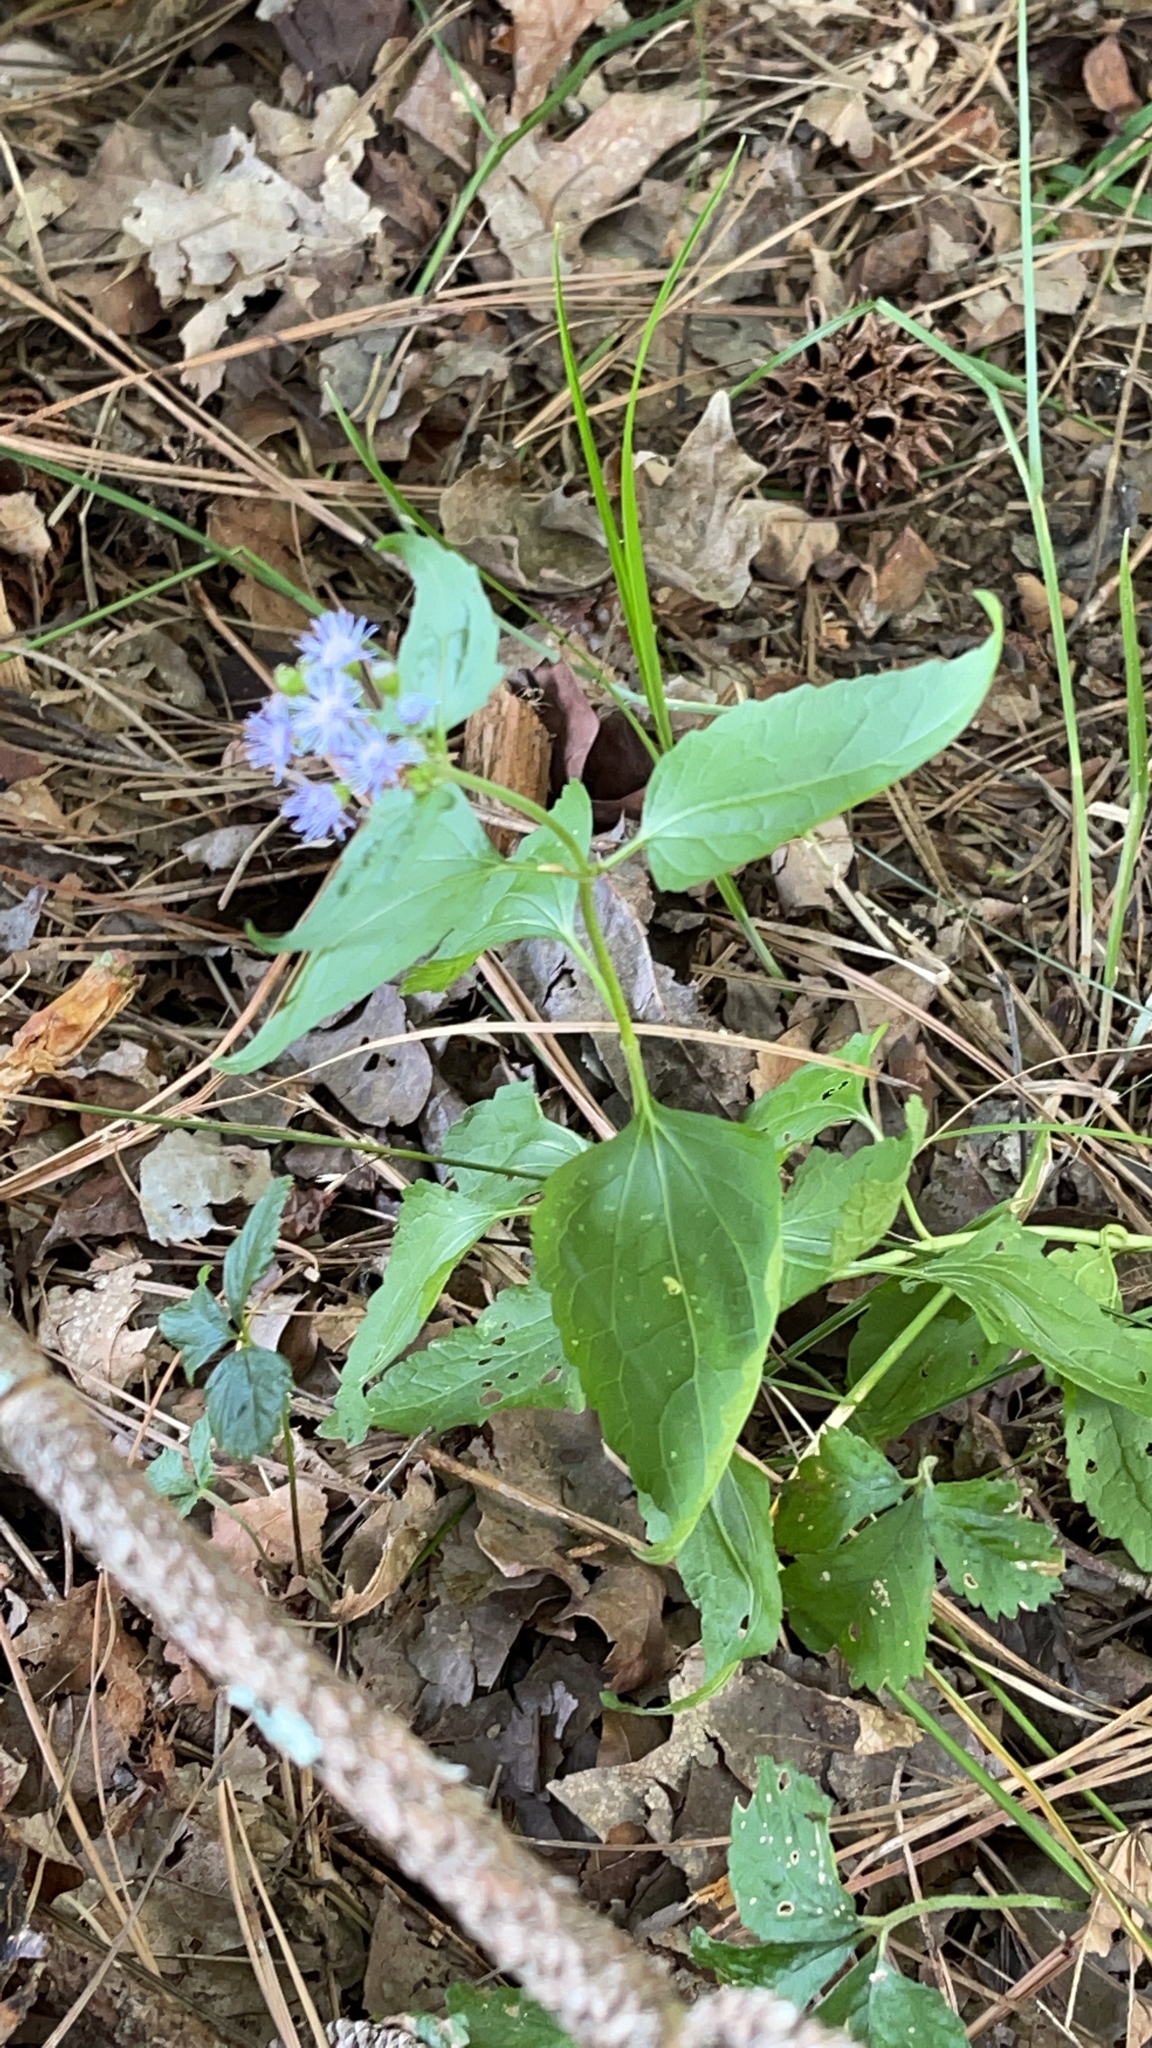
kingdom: Plantae
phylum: Tracheophyta
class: Magnoliopsida
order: Asterales
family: Asteraceae
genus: Conoclinium
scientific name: Conoclinium coelestinum
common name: Blue mistflower
